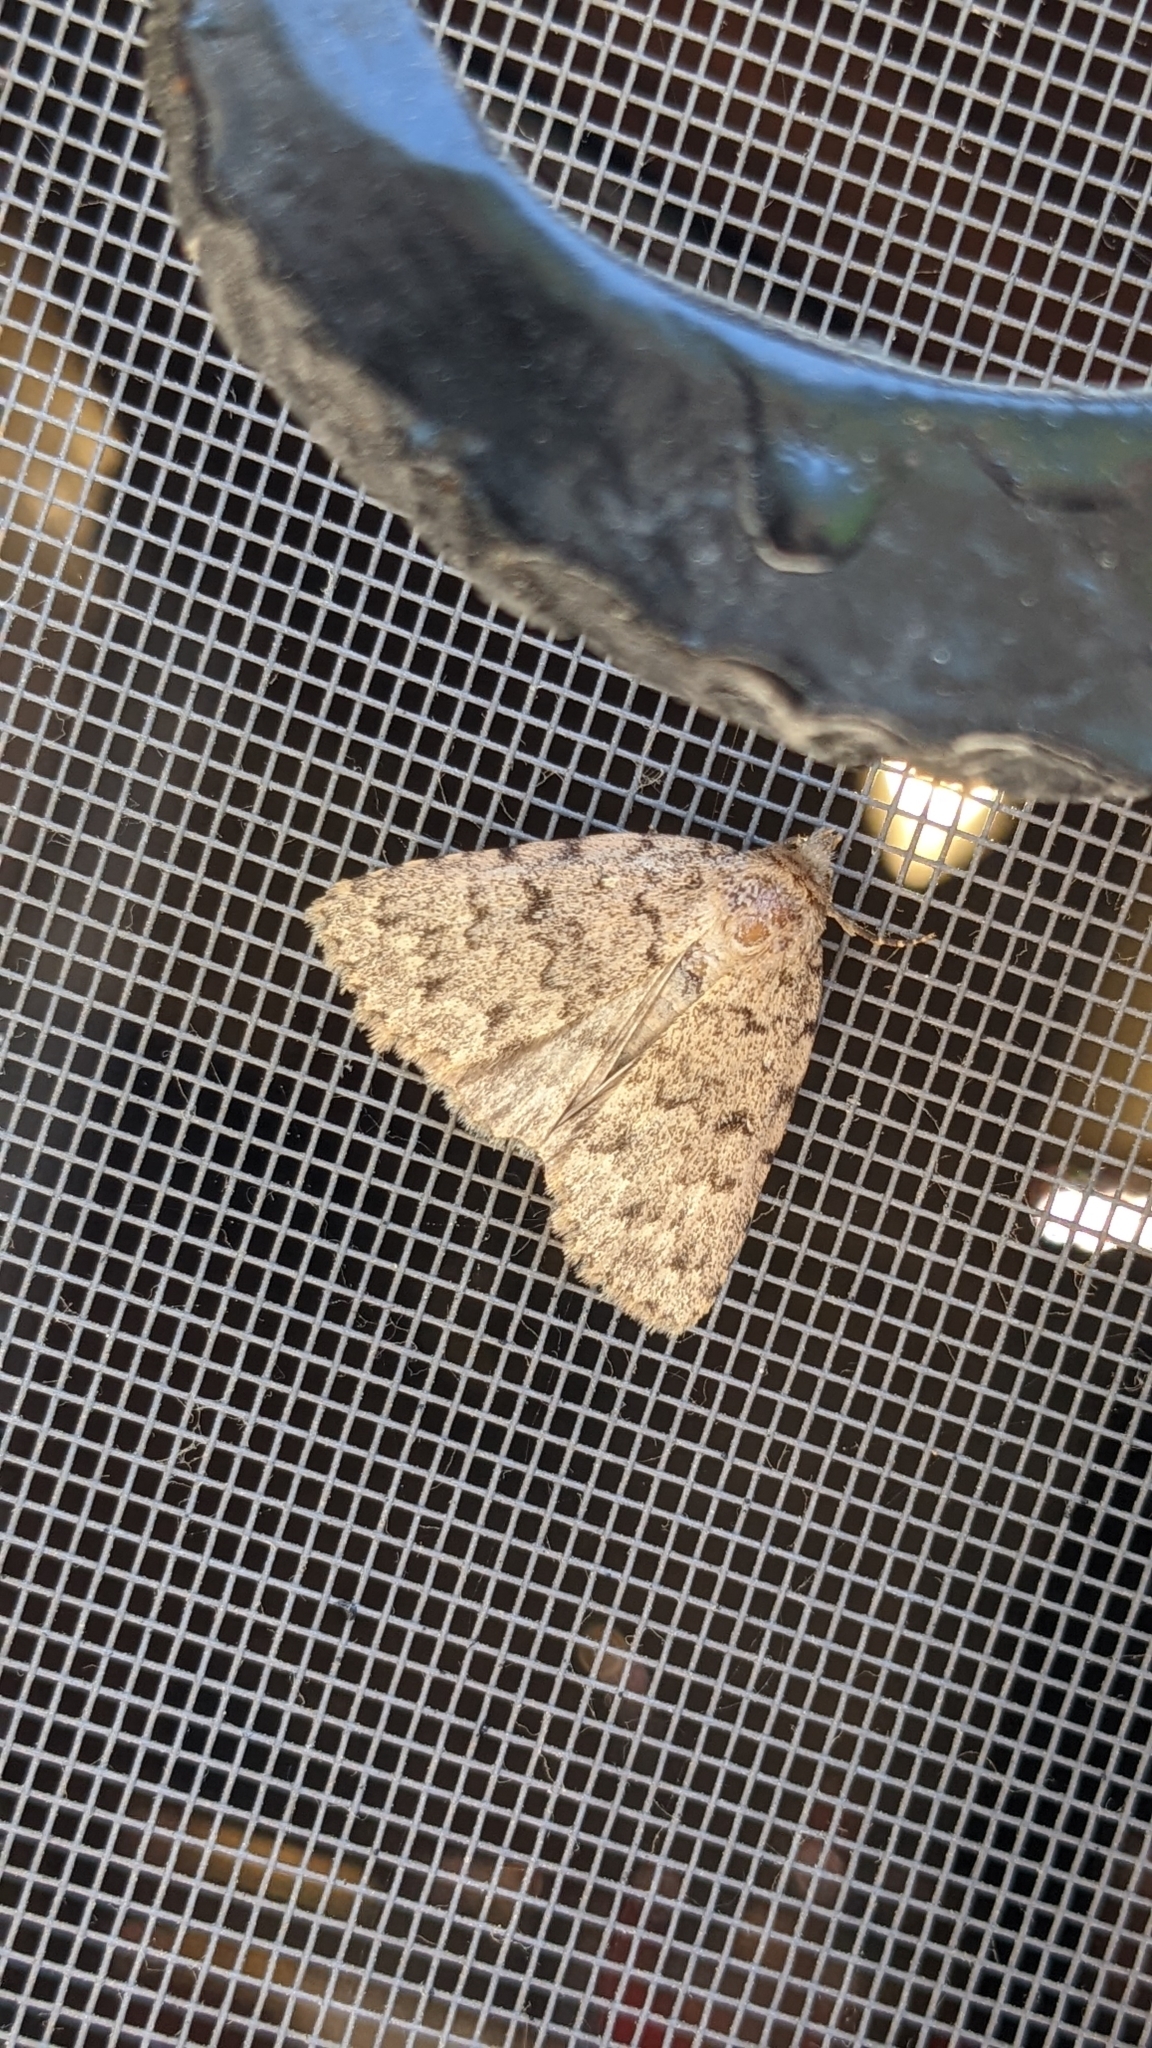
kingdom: Animalia
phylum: Arthropoda
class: Insecta
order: Lepidoptera
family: Erebidae
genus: Autophila
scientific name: Autophila cataphanes
